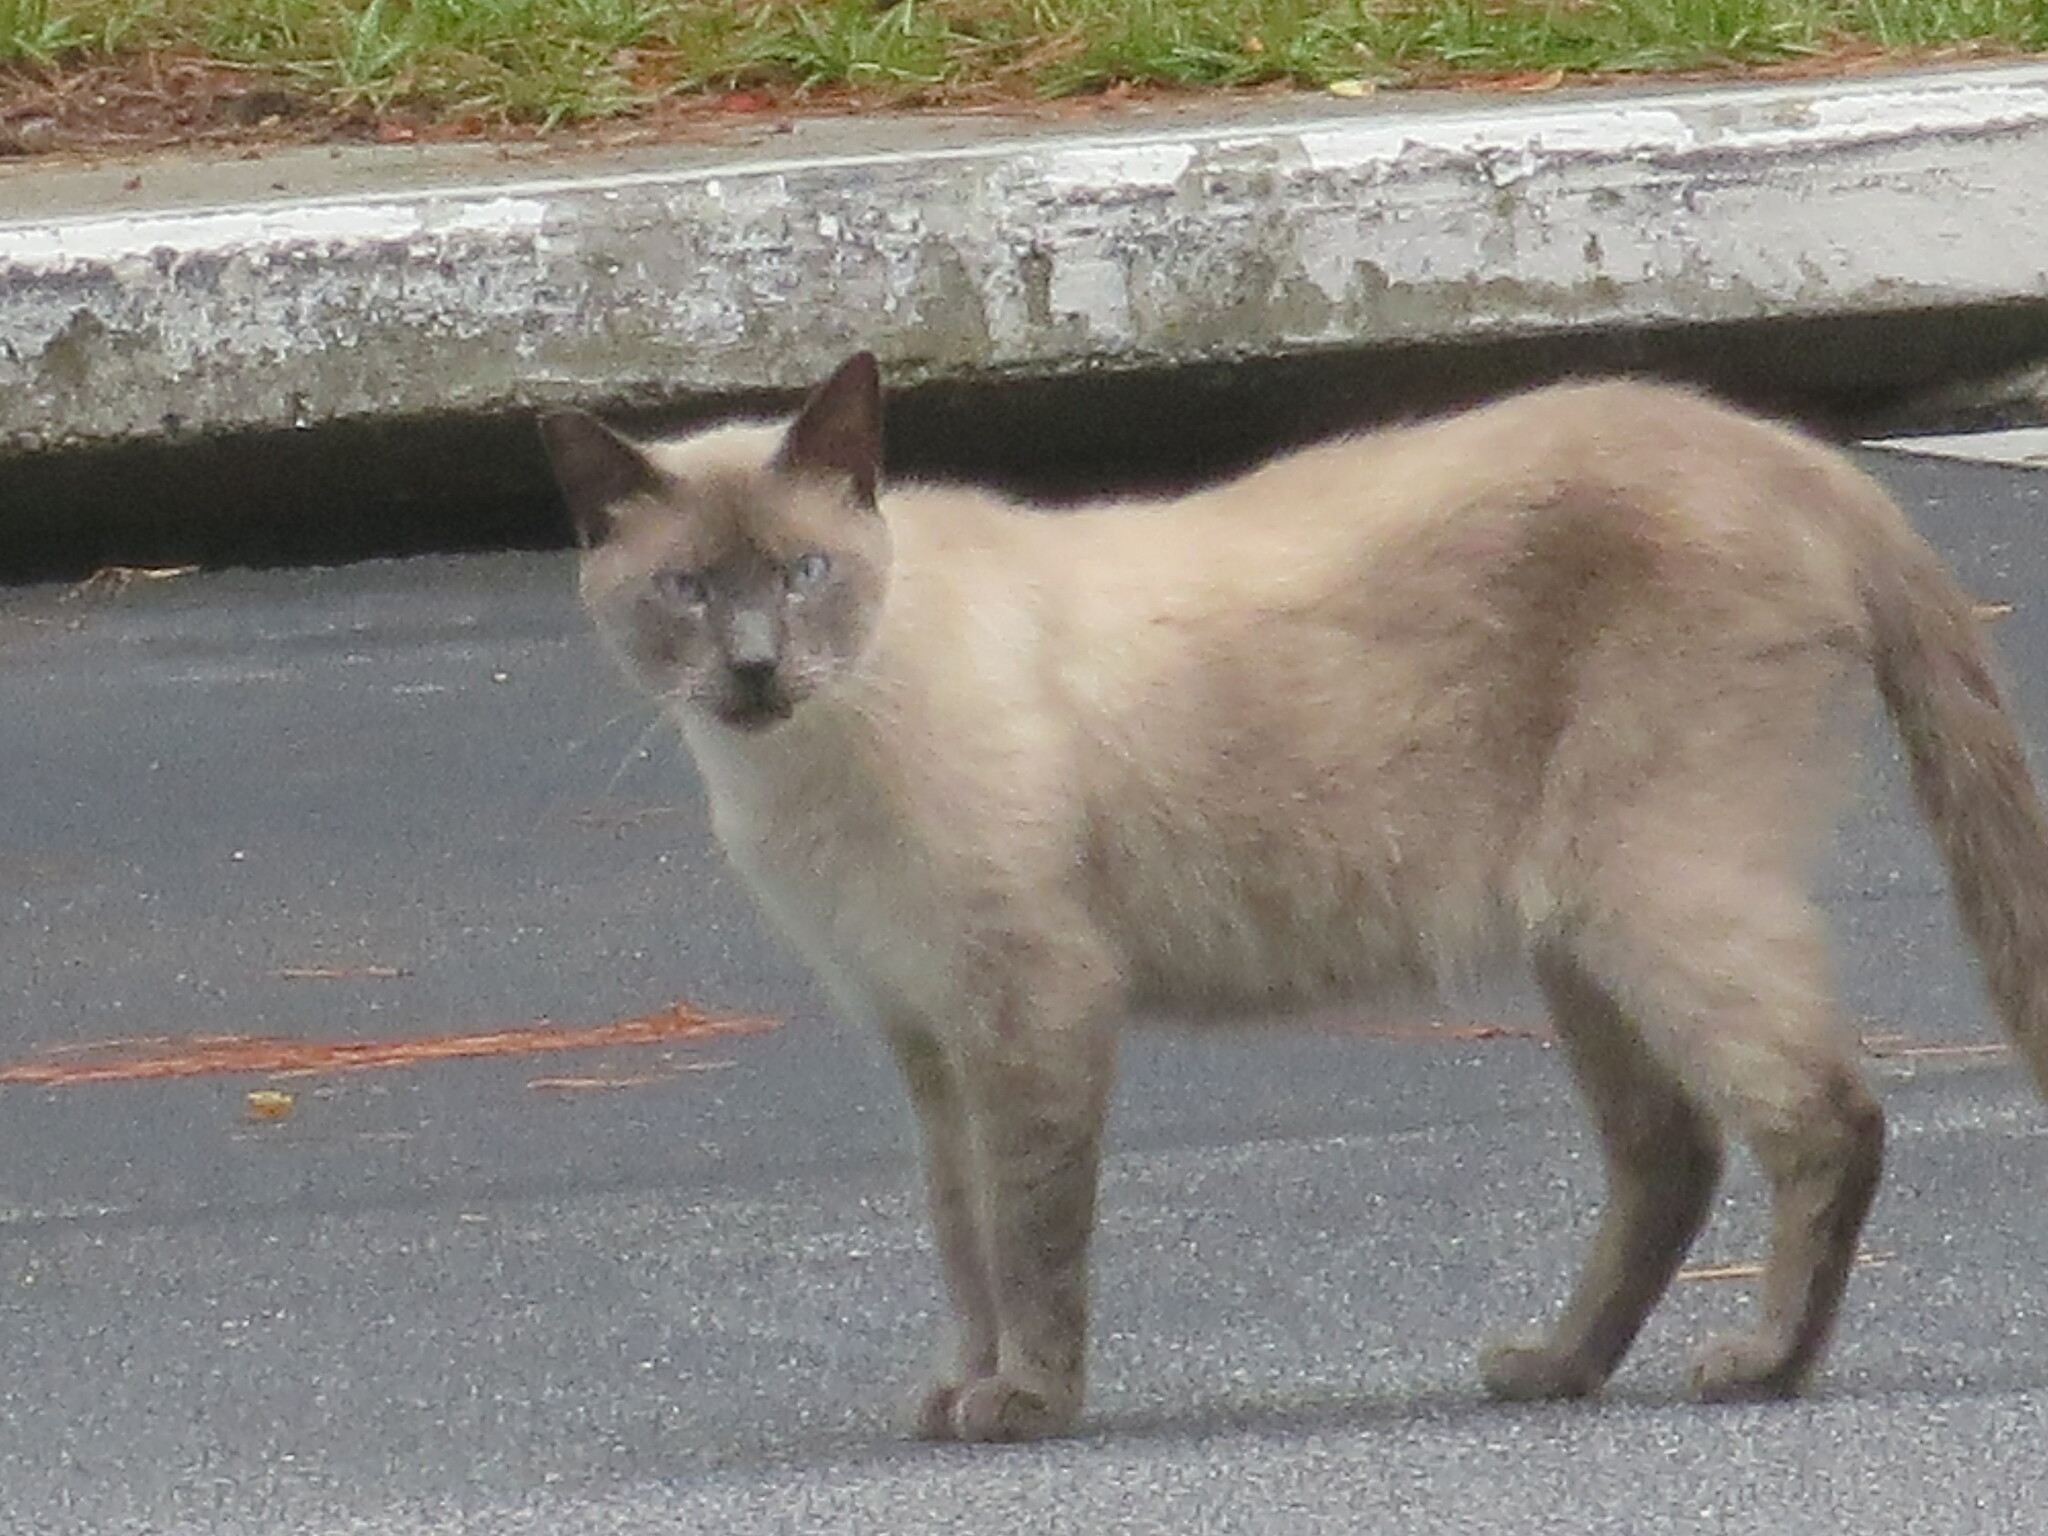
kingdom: Animalia
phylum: Chordata
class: Mammalia
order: Carnivora
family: Felidae
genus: Felis
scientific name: Felis catus
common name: Domestic cat
